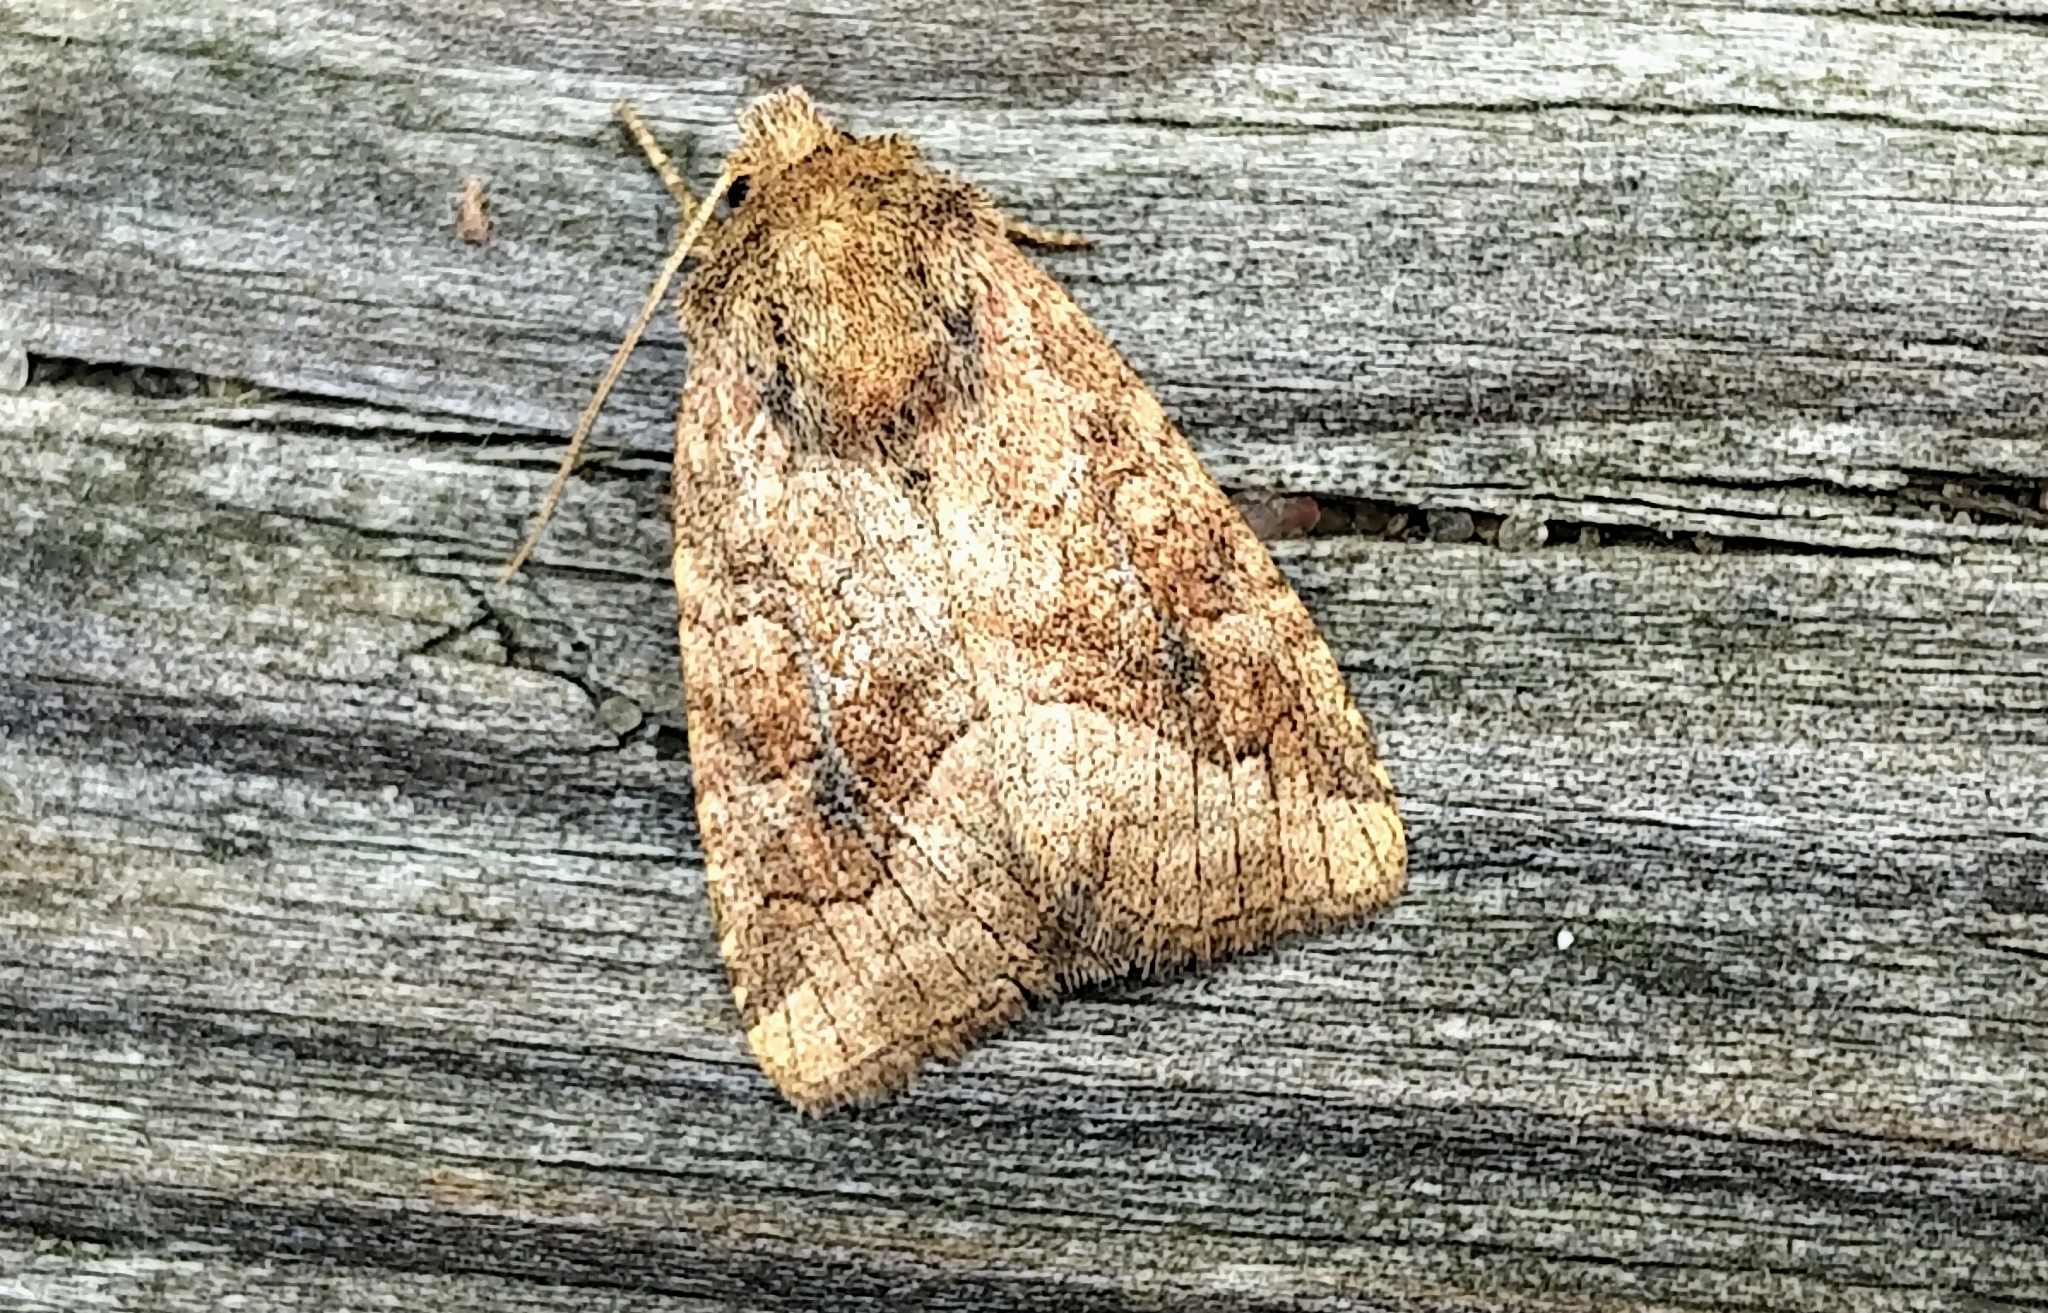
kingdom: Animalia
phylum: Arthropoda
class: Insecta
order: Lepidoptera
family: Noctuidae
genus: Lacinipolia
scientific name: Lacinipolia lorea
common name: Bridled arches moth
